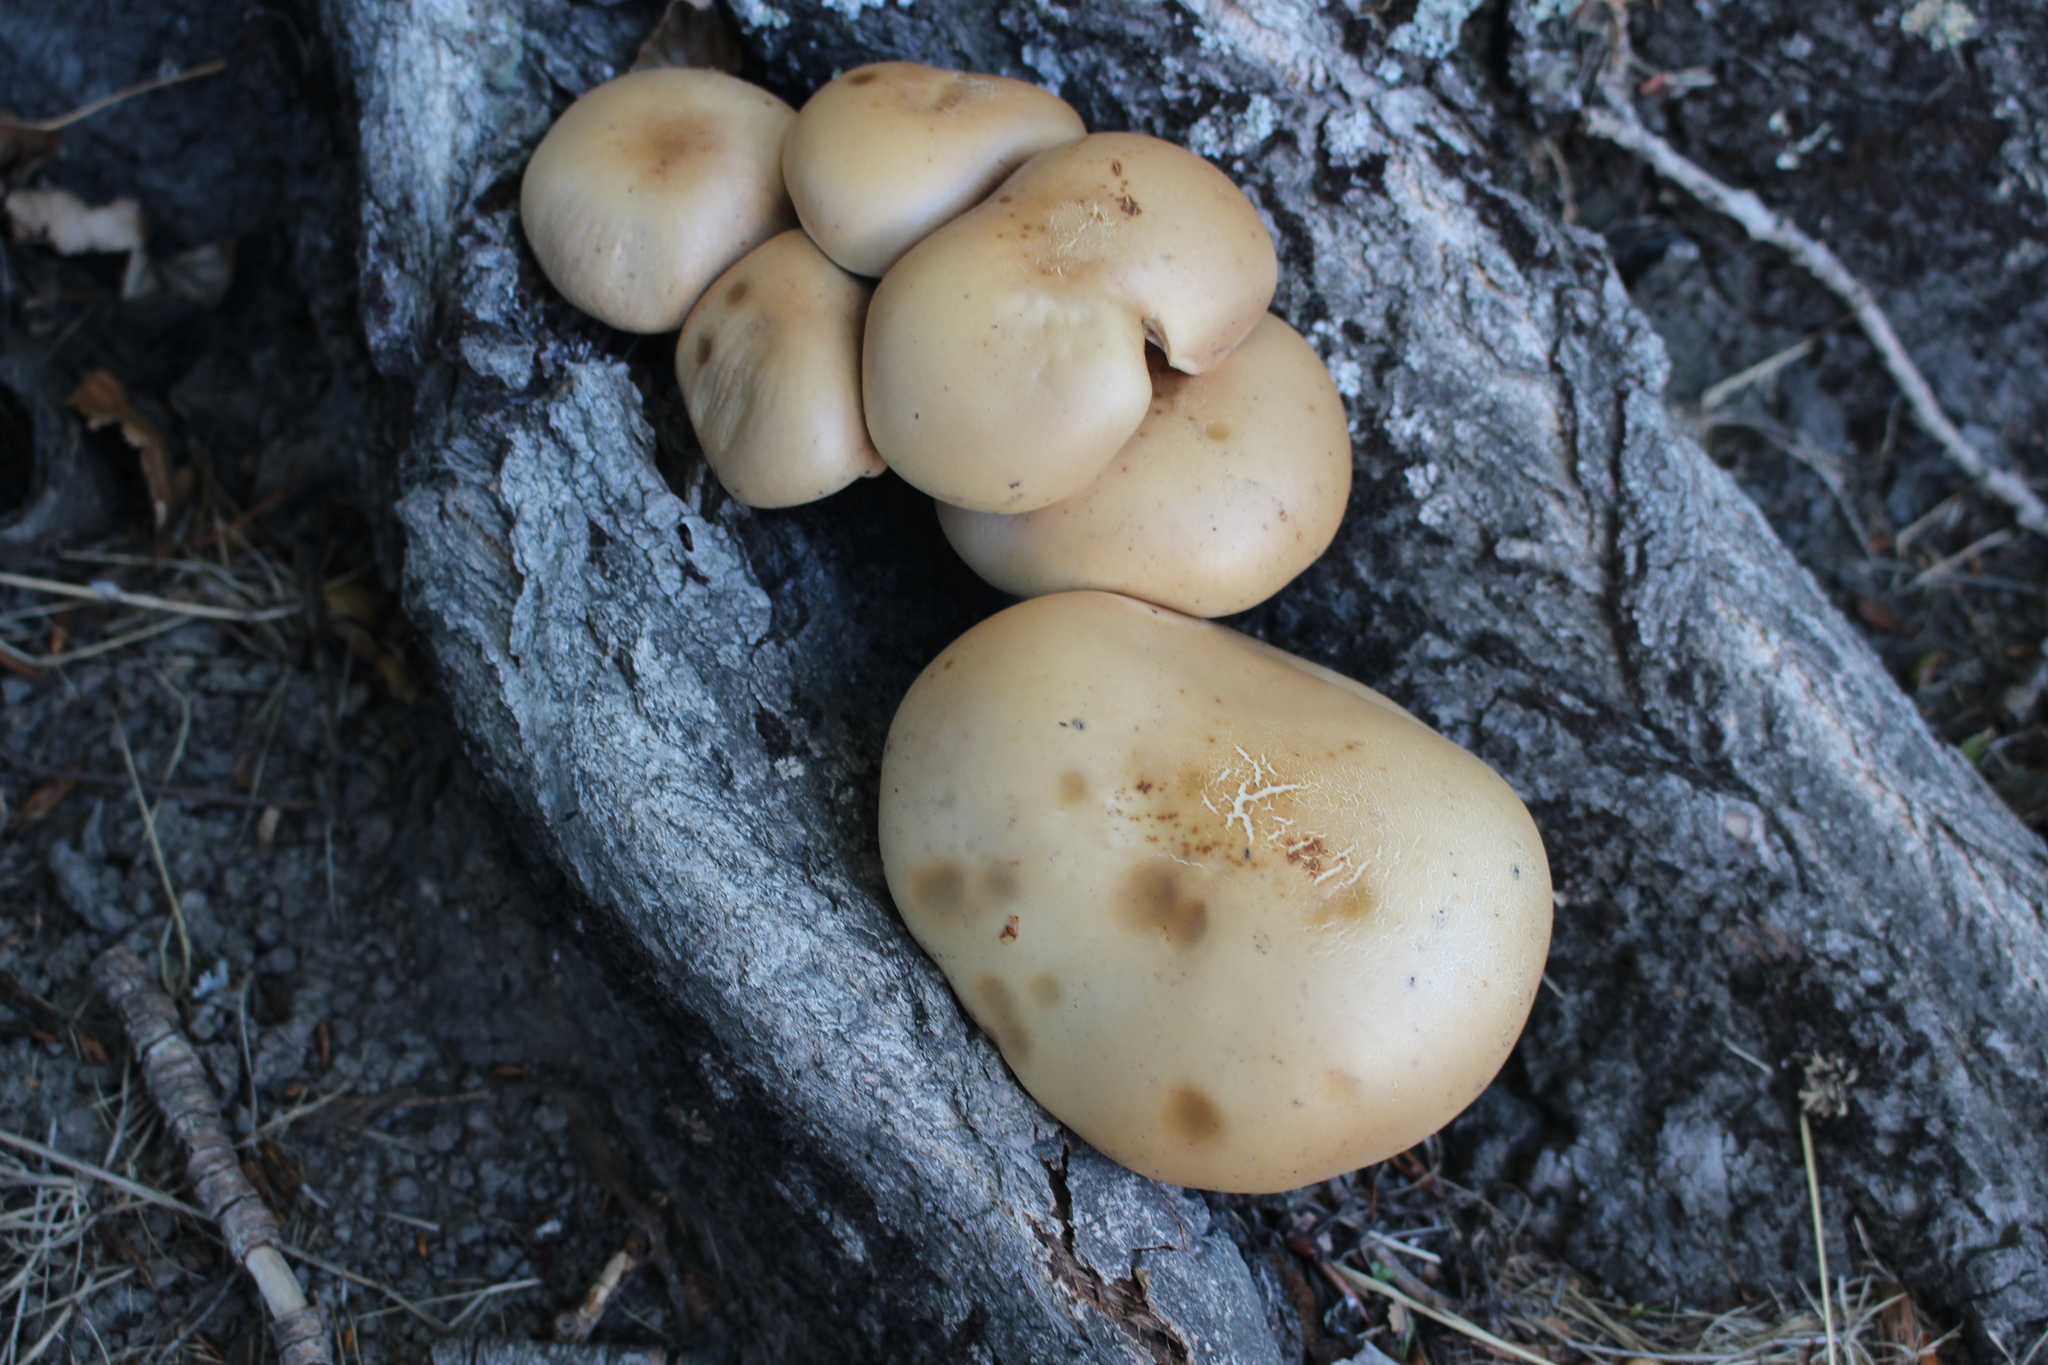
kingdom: Fungi
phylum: Basidiomycota
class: Agaricomycetes
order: Agaricales
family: Tubariaceae
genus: Cyclocybe
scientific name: Cyclocybe parasitica
